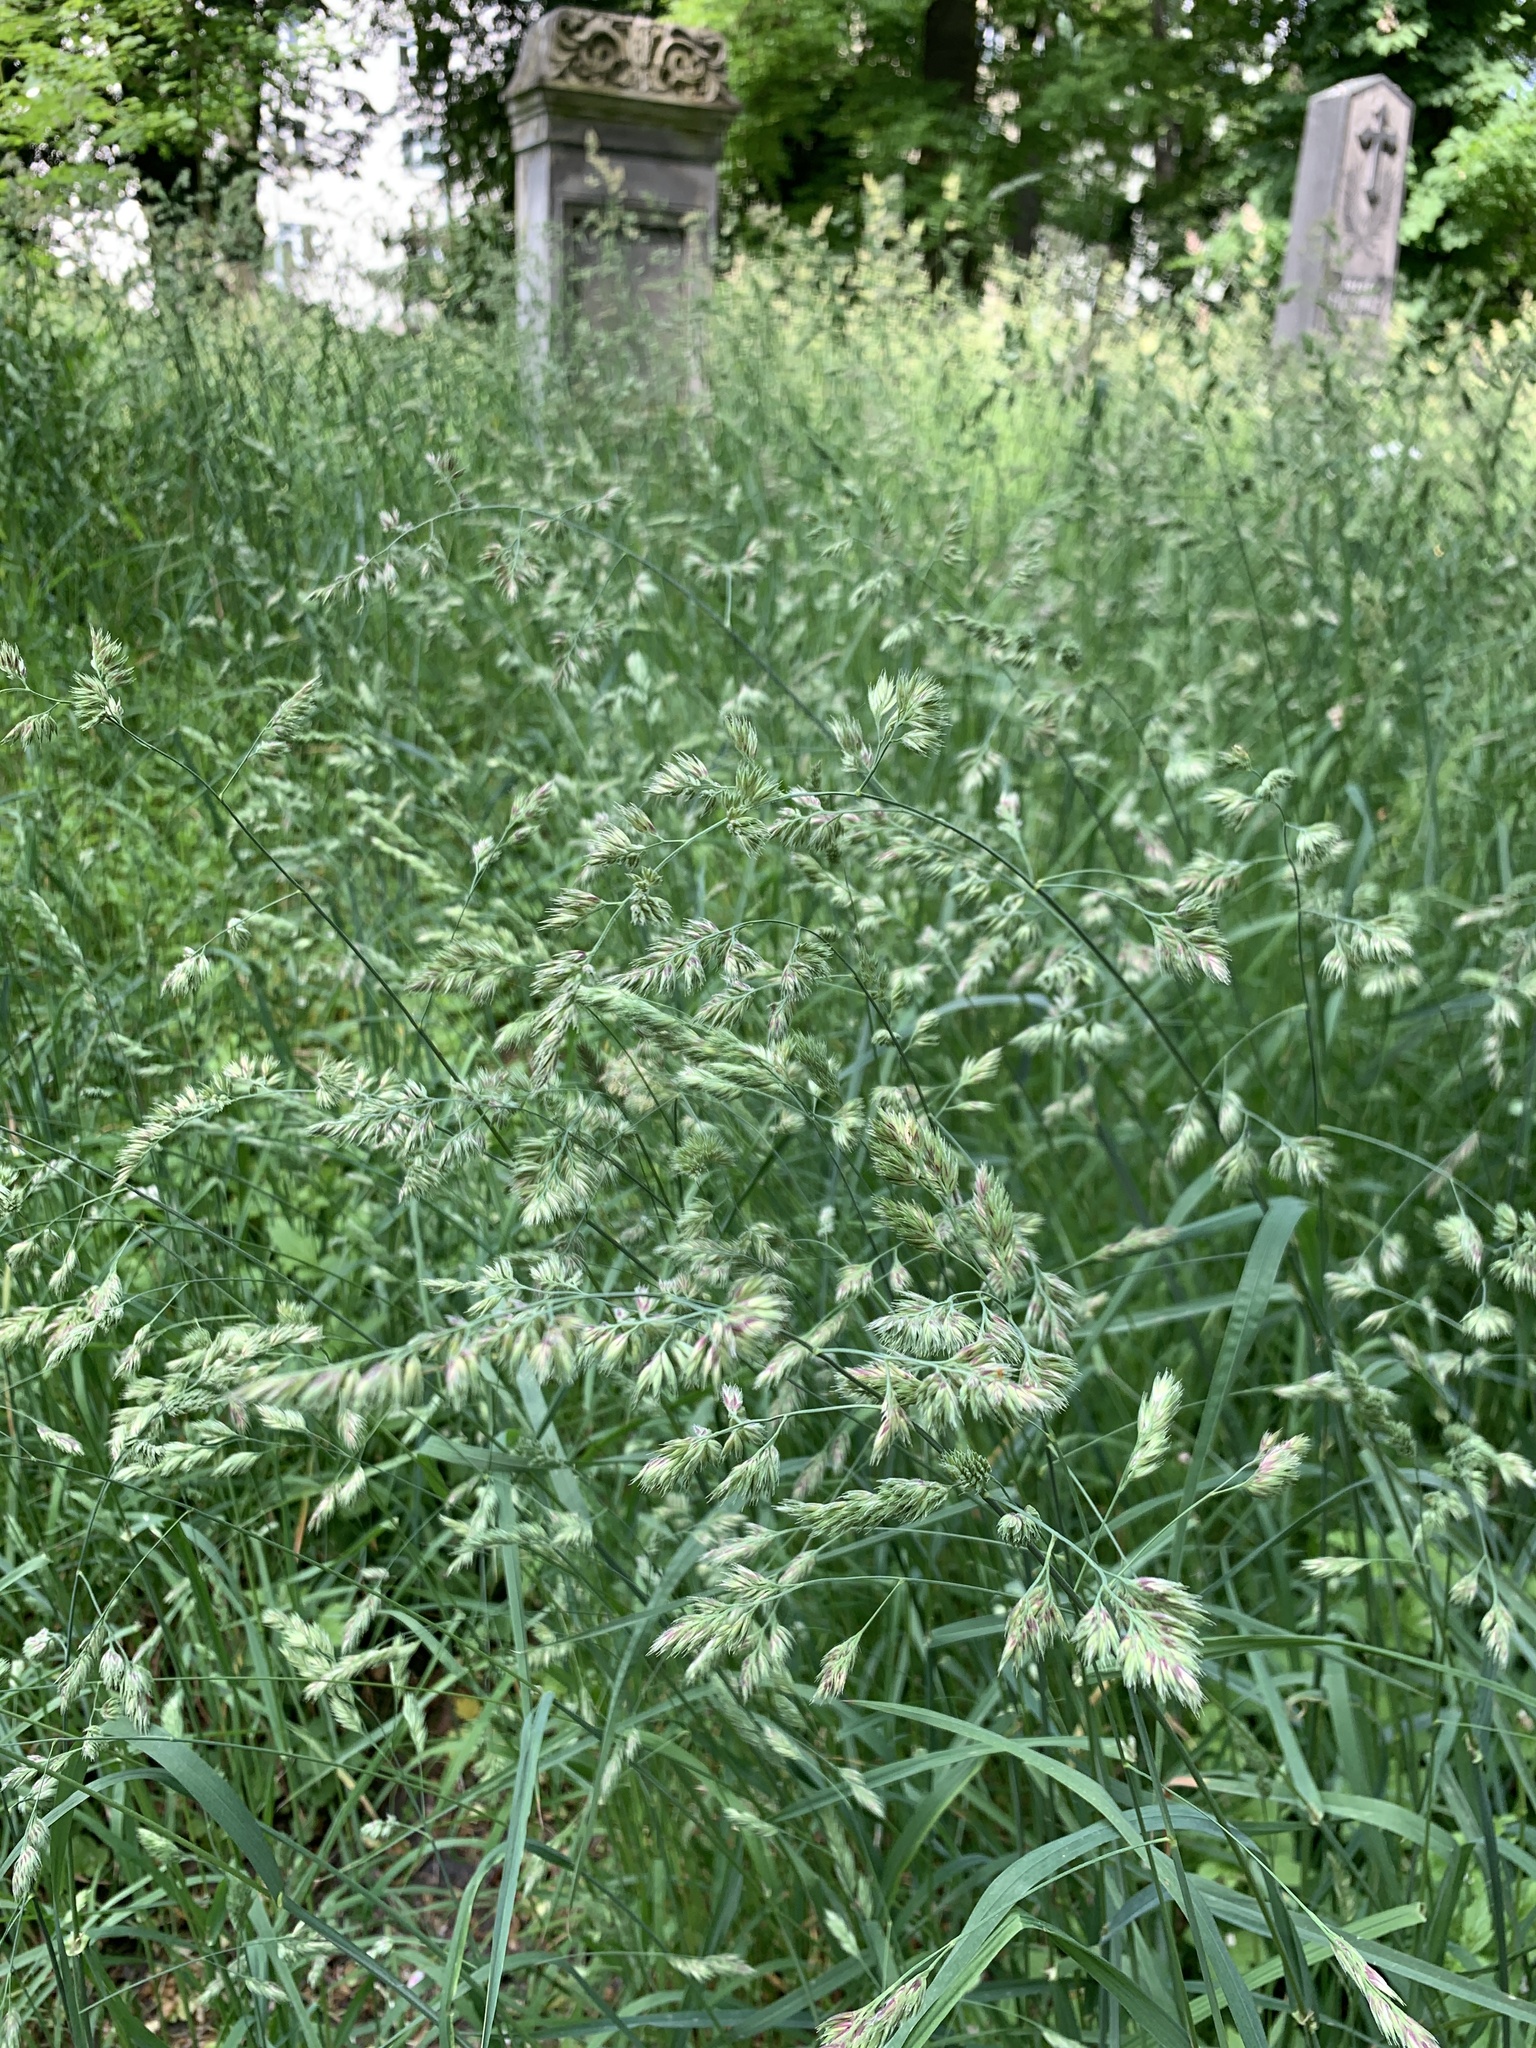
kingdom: Plantae
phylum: Tracheophyta
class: Liliopsida
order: Poales
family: Poaceae
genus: Dactylis
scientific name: Dactylis glomerata
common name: Orchardgrass
